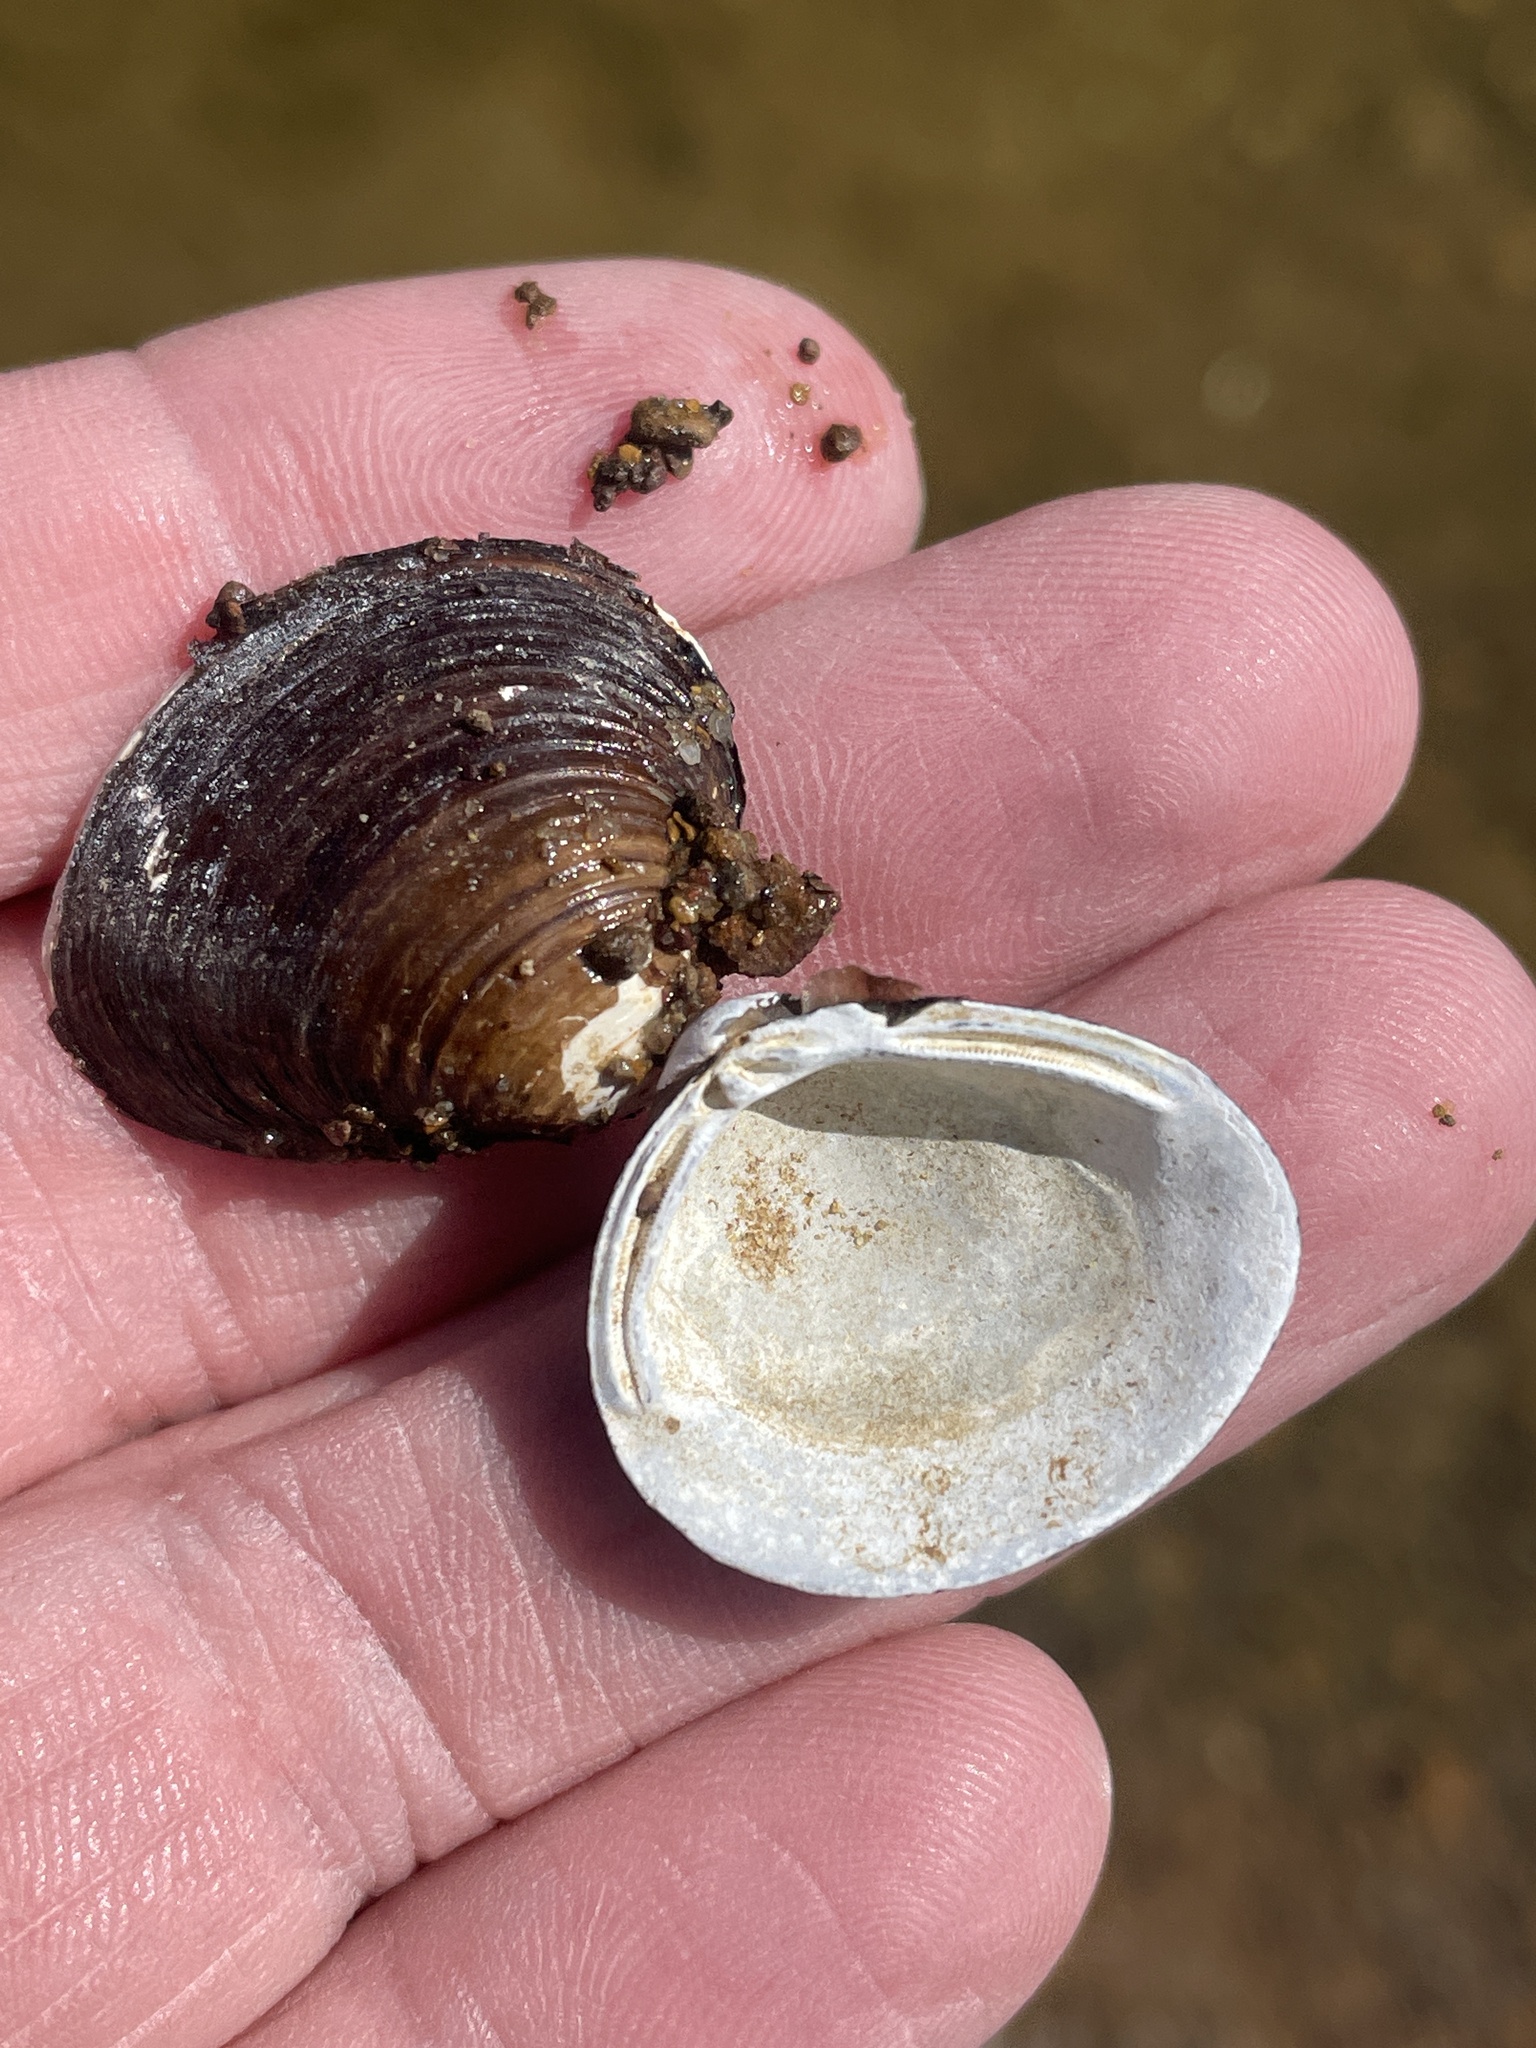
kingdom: Animalia
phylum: Mollusca
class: Bivalvia
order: Venerida
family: Cyrenidae
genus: Corbicula
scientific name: Corbicula fluminea
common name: Asian clam
